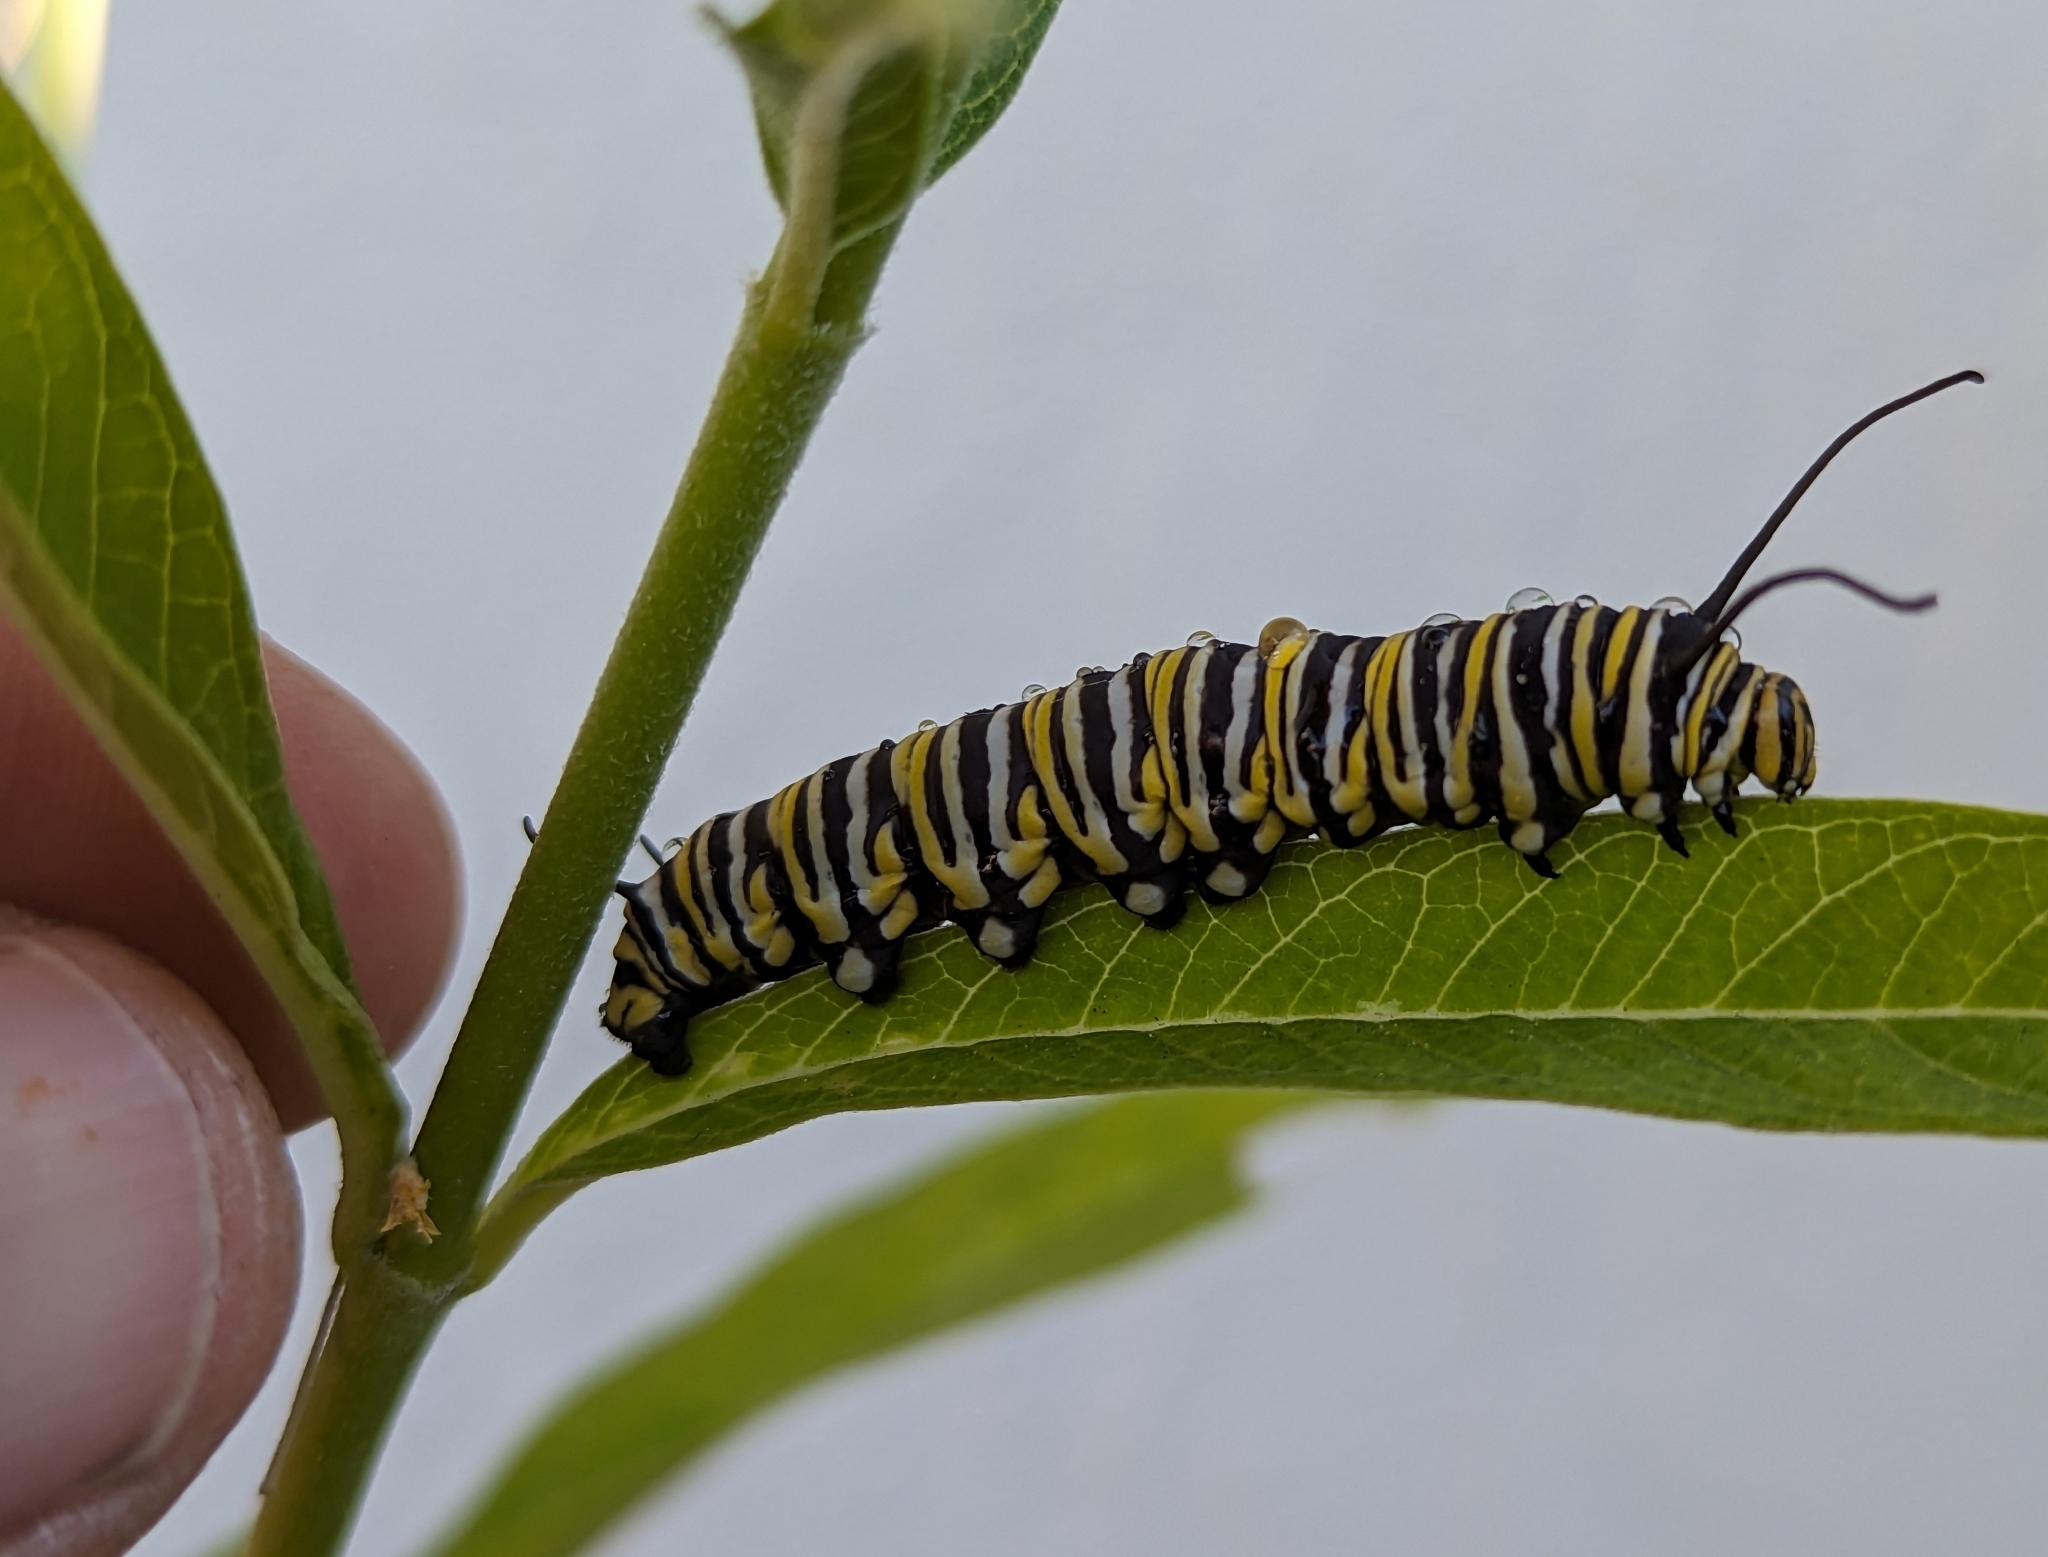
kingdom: Animalia
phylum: Arthropoda
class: Insecta
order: Lepidoptera
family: Nymphalidae
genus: Danaus
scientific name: Danaus plexippus
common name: Monarch
